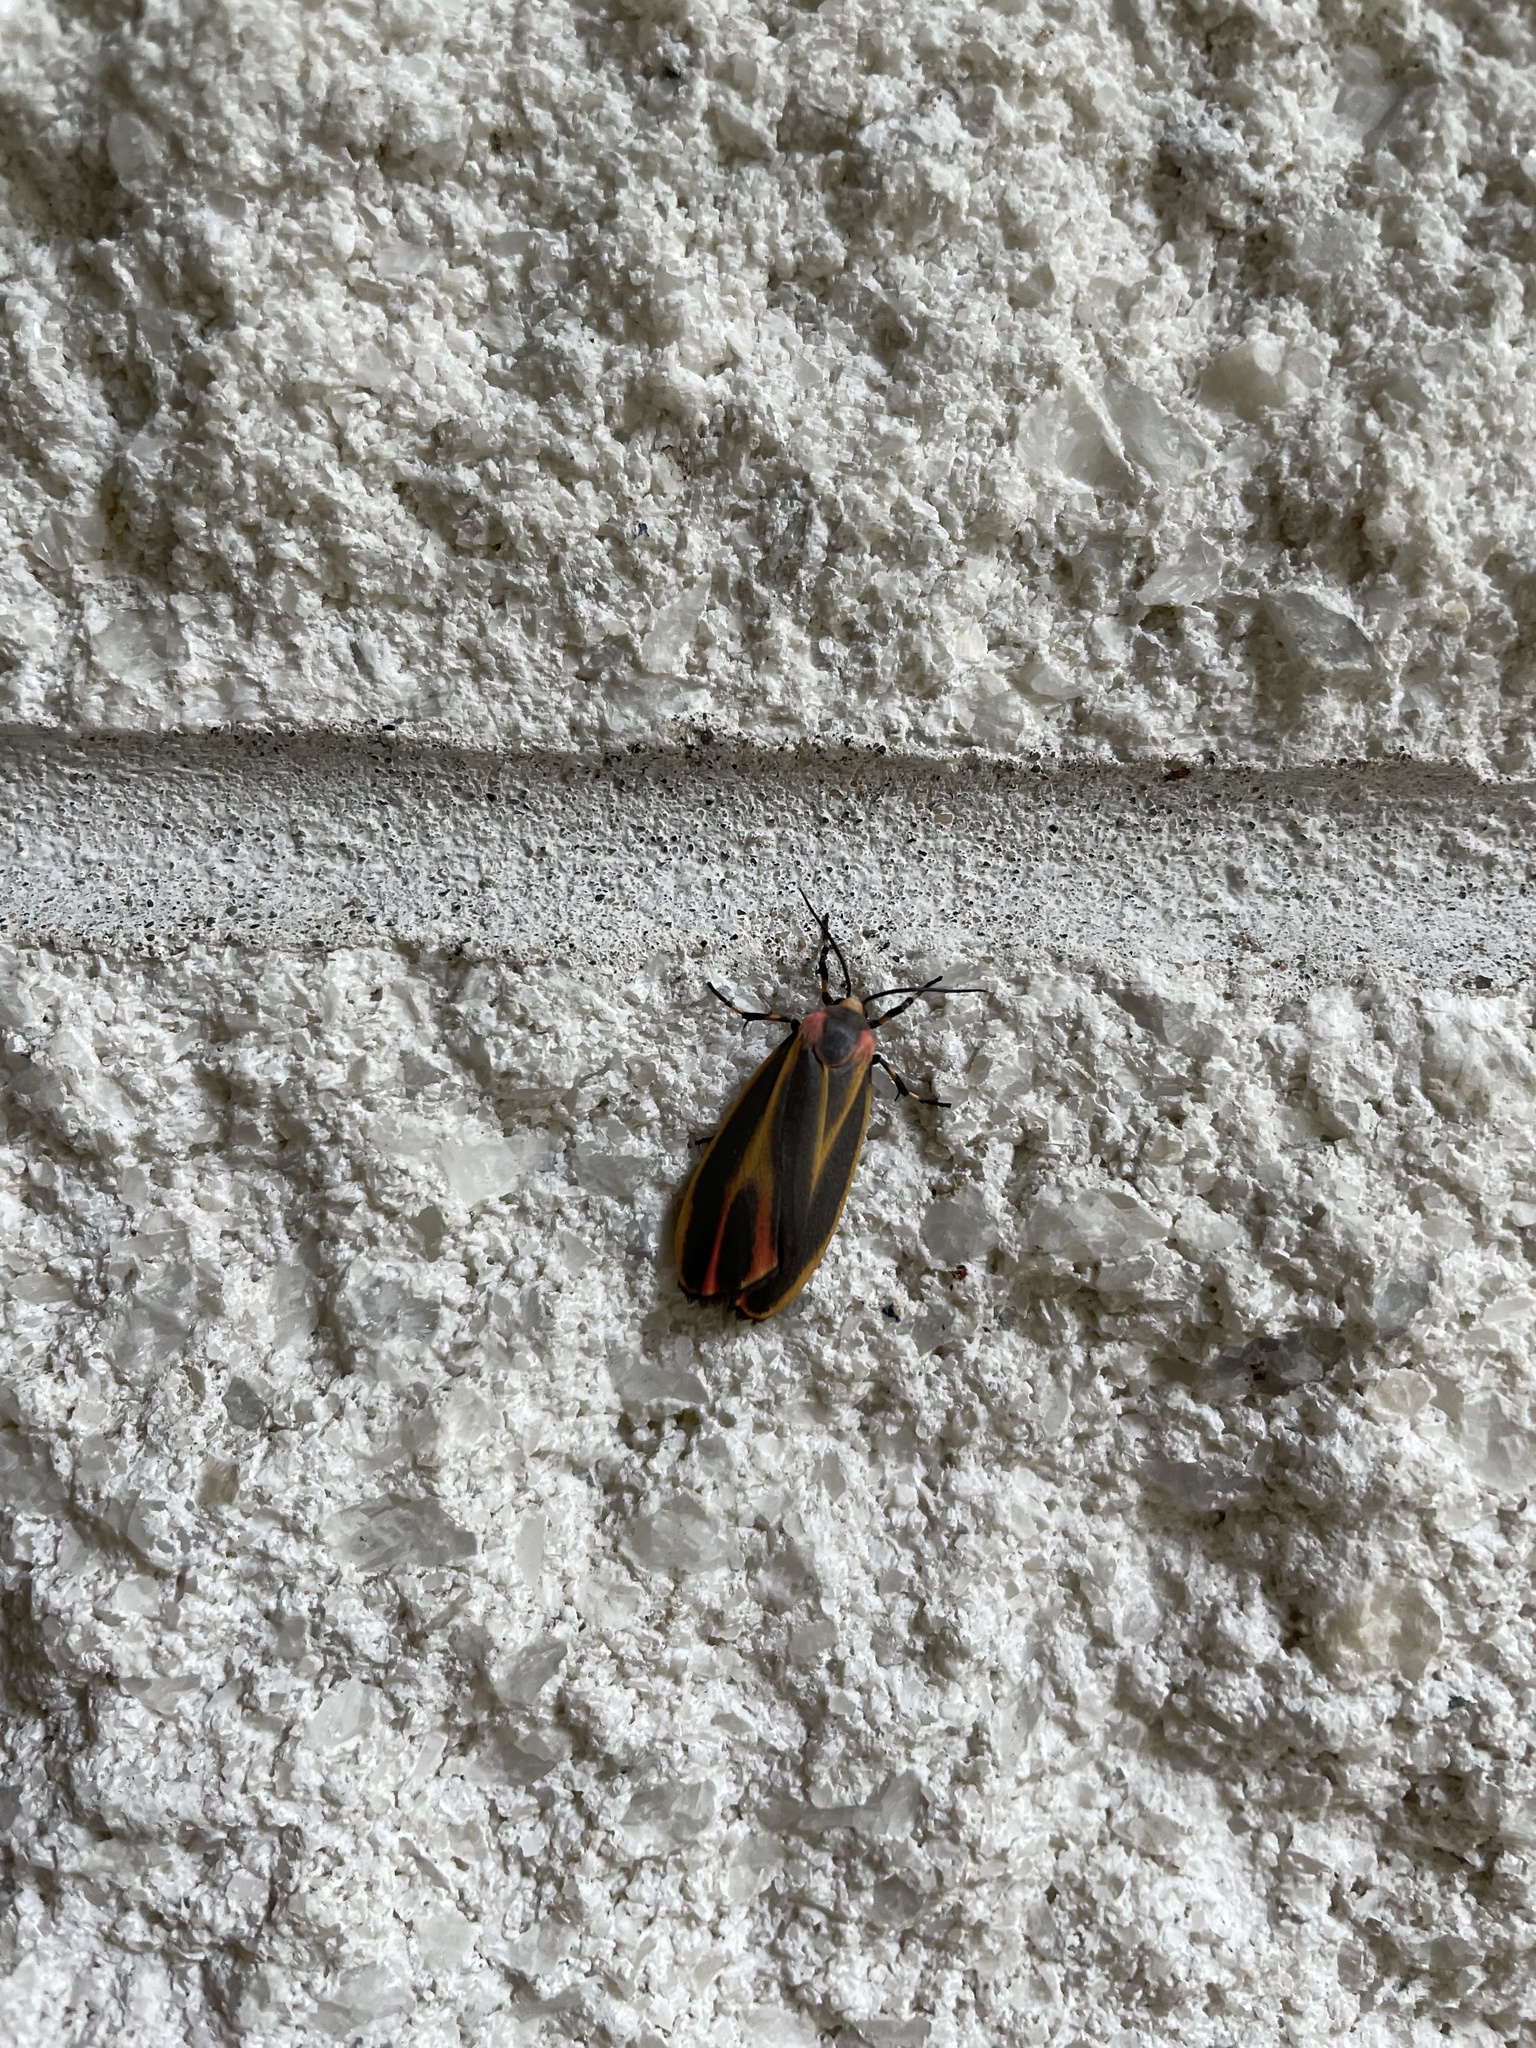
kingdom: Animalia
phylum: Arthropoda
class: Insecta
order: Lepidoptera
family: Erebidae
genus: Hypoprepia
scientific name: Hypoprepia fucosa
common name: Painted lichen moth
